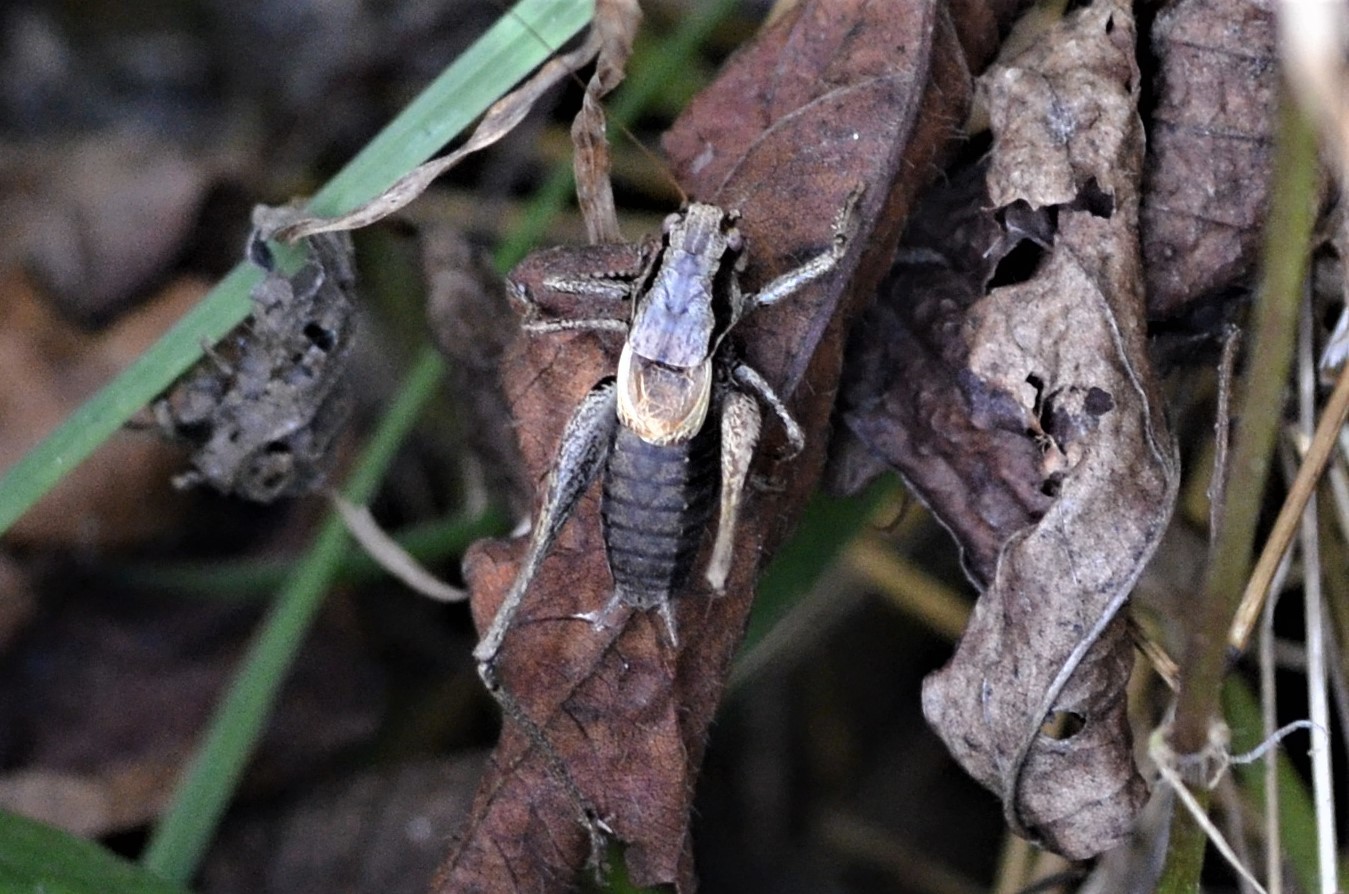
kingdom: Animalia
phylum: Arthropoda
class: Insecta
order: Orthoptera
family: Tettigoniidae
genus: Pholidoptera
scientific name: Pholidoptera griseoaptera
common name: Dark bush-cricket
